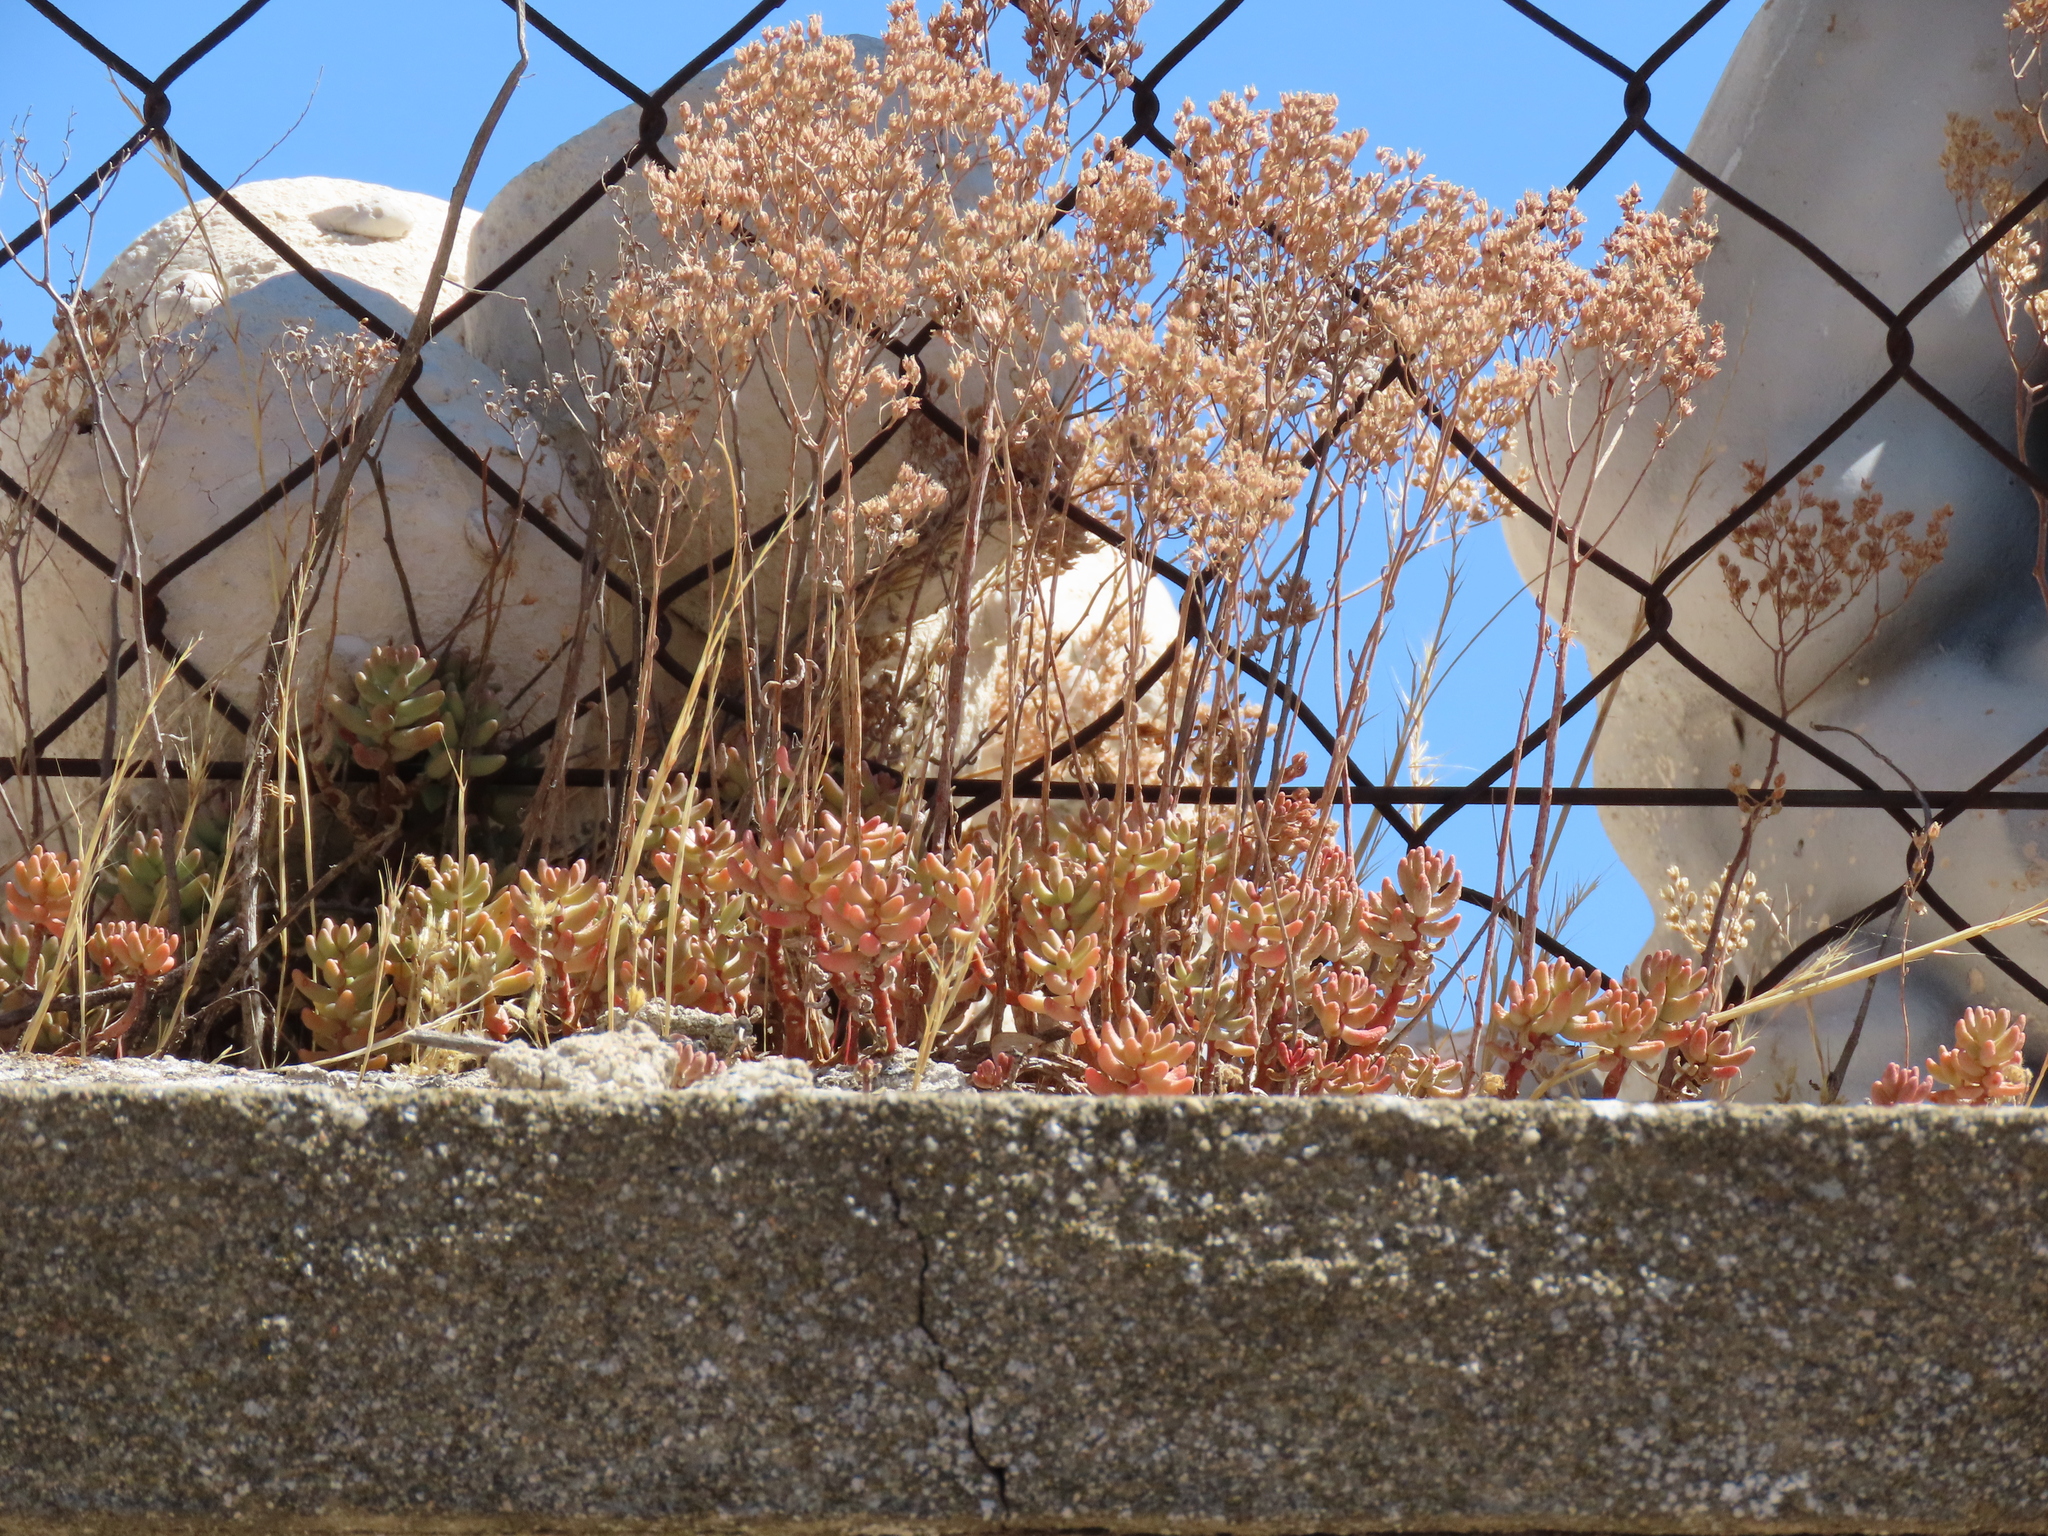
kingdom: Plantae
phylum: Tracheophyta
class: Magnoliopsida
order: Saxifragales
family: Crassulaceae
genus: Sedum
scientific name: Sedum album
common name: White stonecrop
